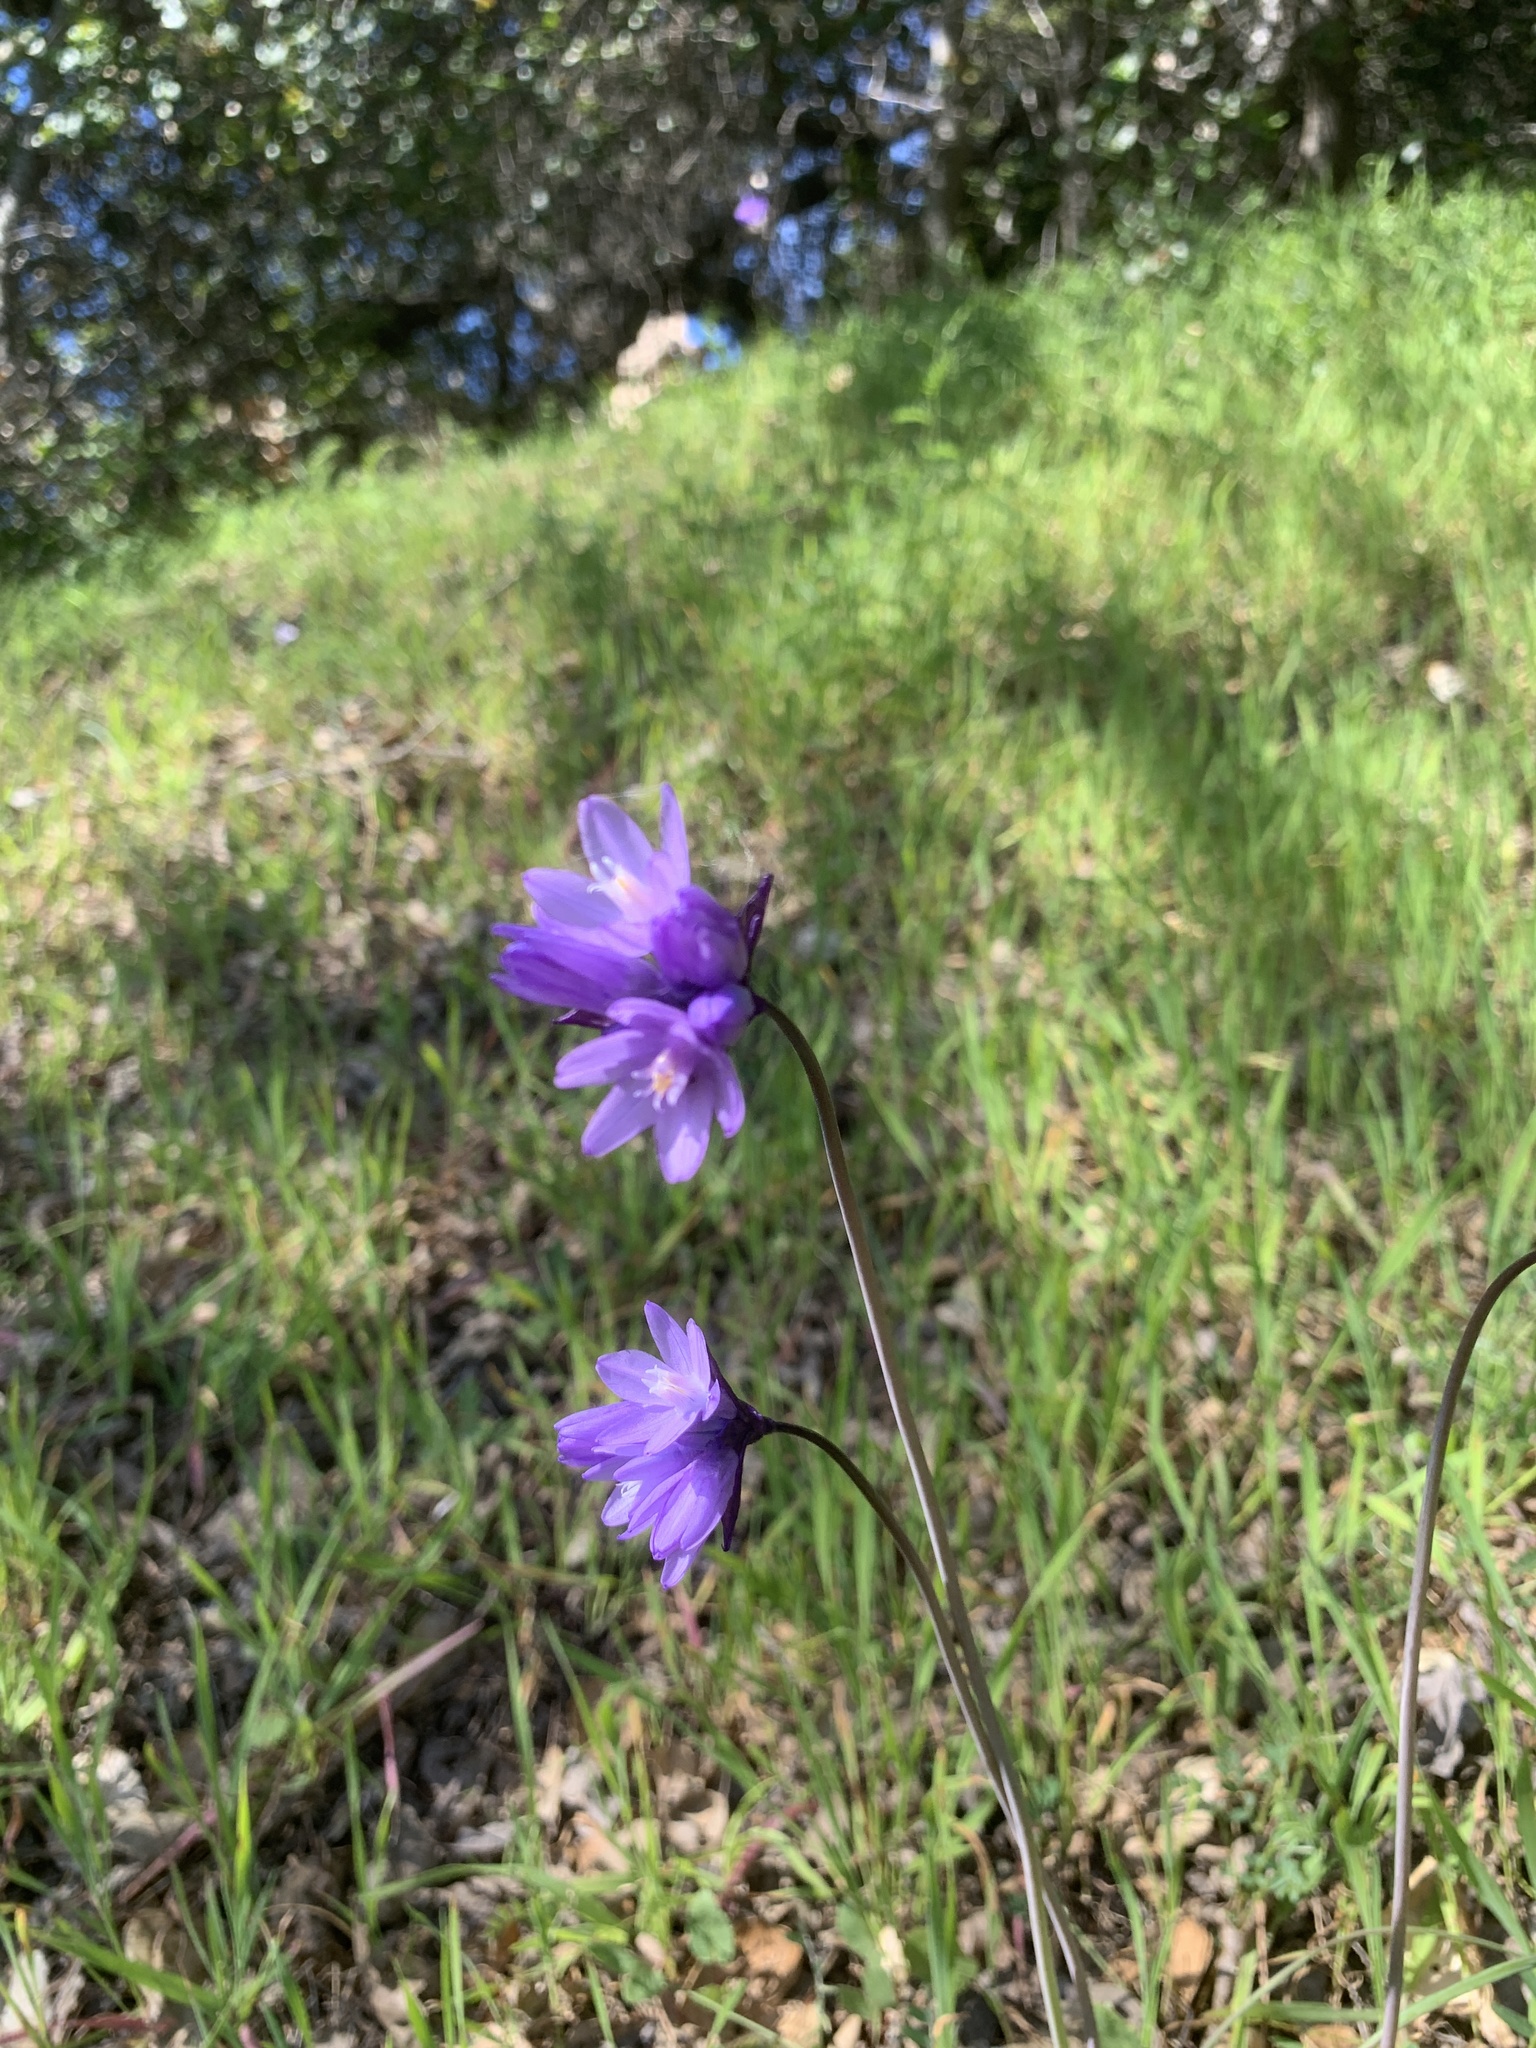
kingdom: Plantae
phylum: Tracheophyta
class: Liliopsida
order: Asparagales
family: Asparagaceae
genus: Dipterostemon
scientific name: Dipterostemon capitatus
